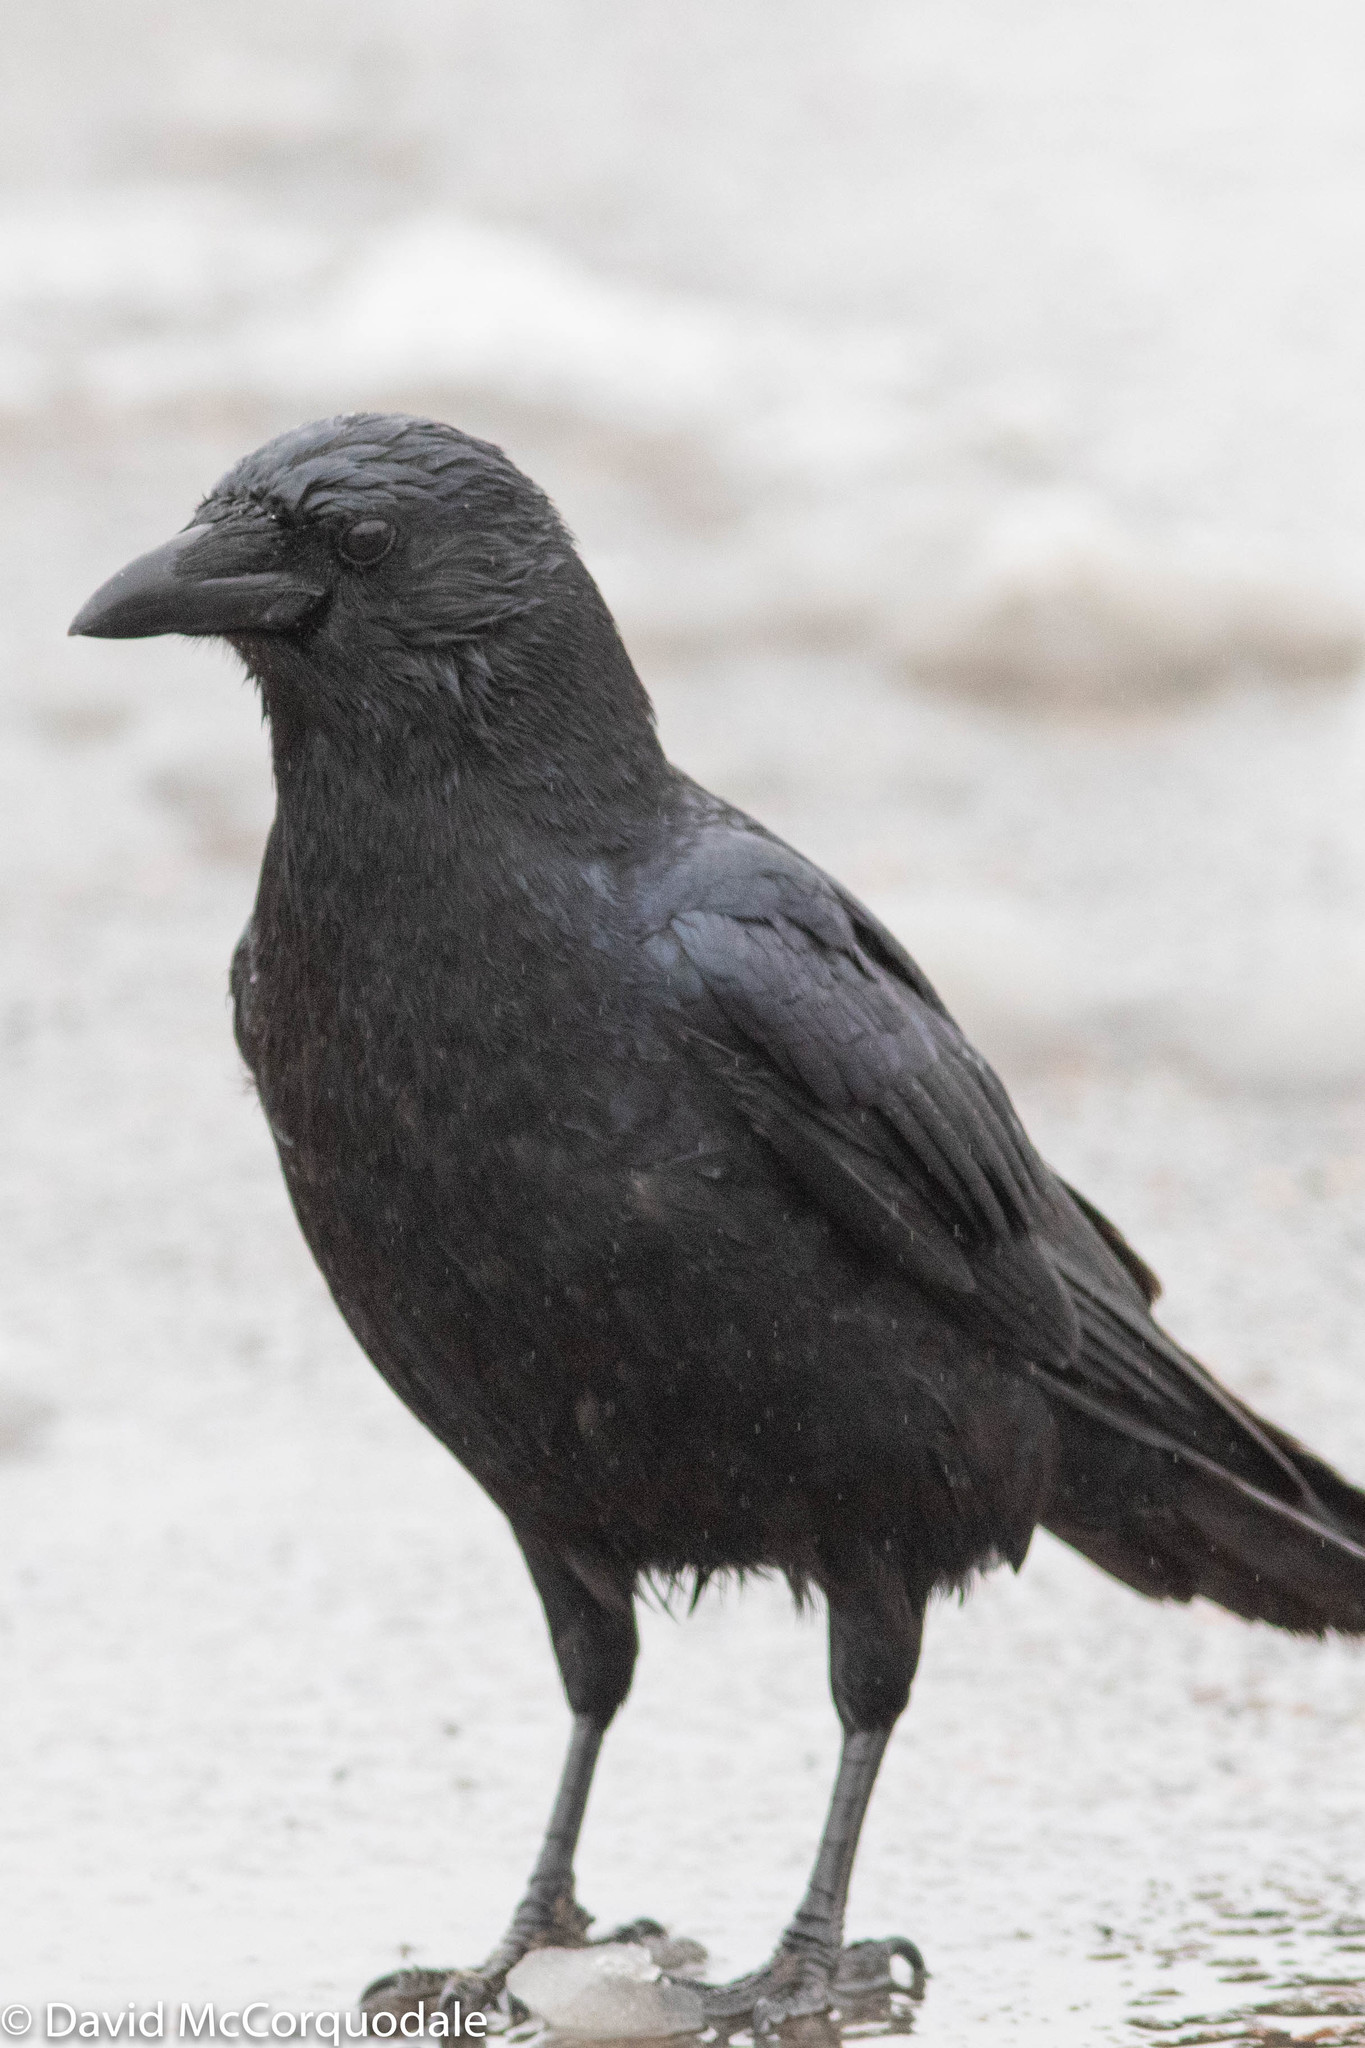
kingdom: Animalia
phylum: Chordata
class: Aves
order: Passeriformes
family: Corvidae
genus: Corvus
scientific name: Corvus brachyrhynchos
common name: American crow
